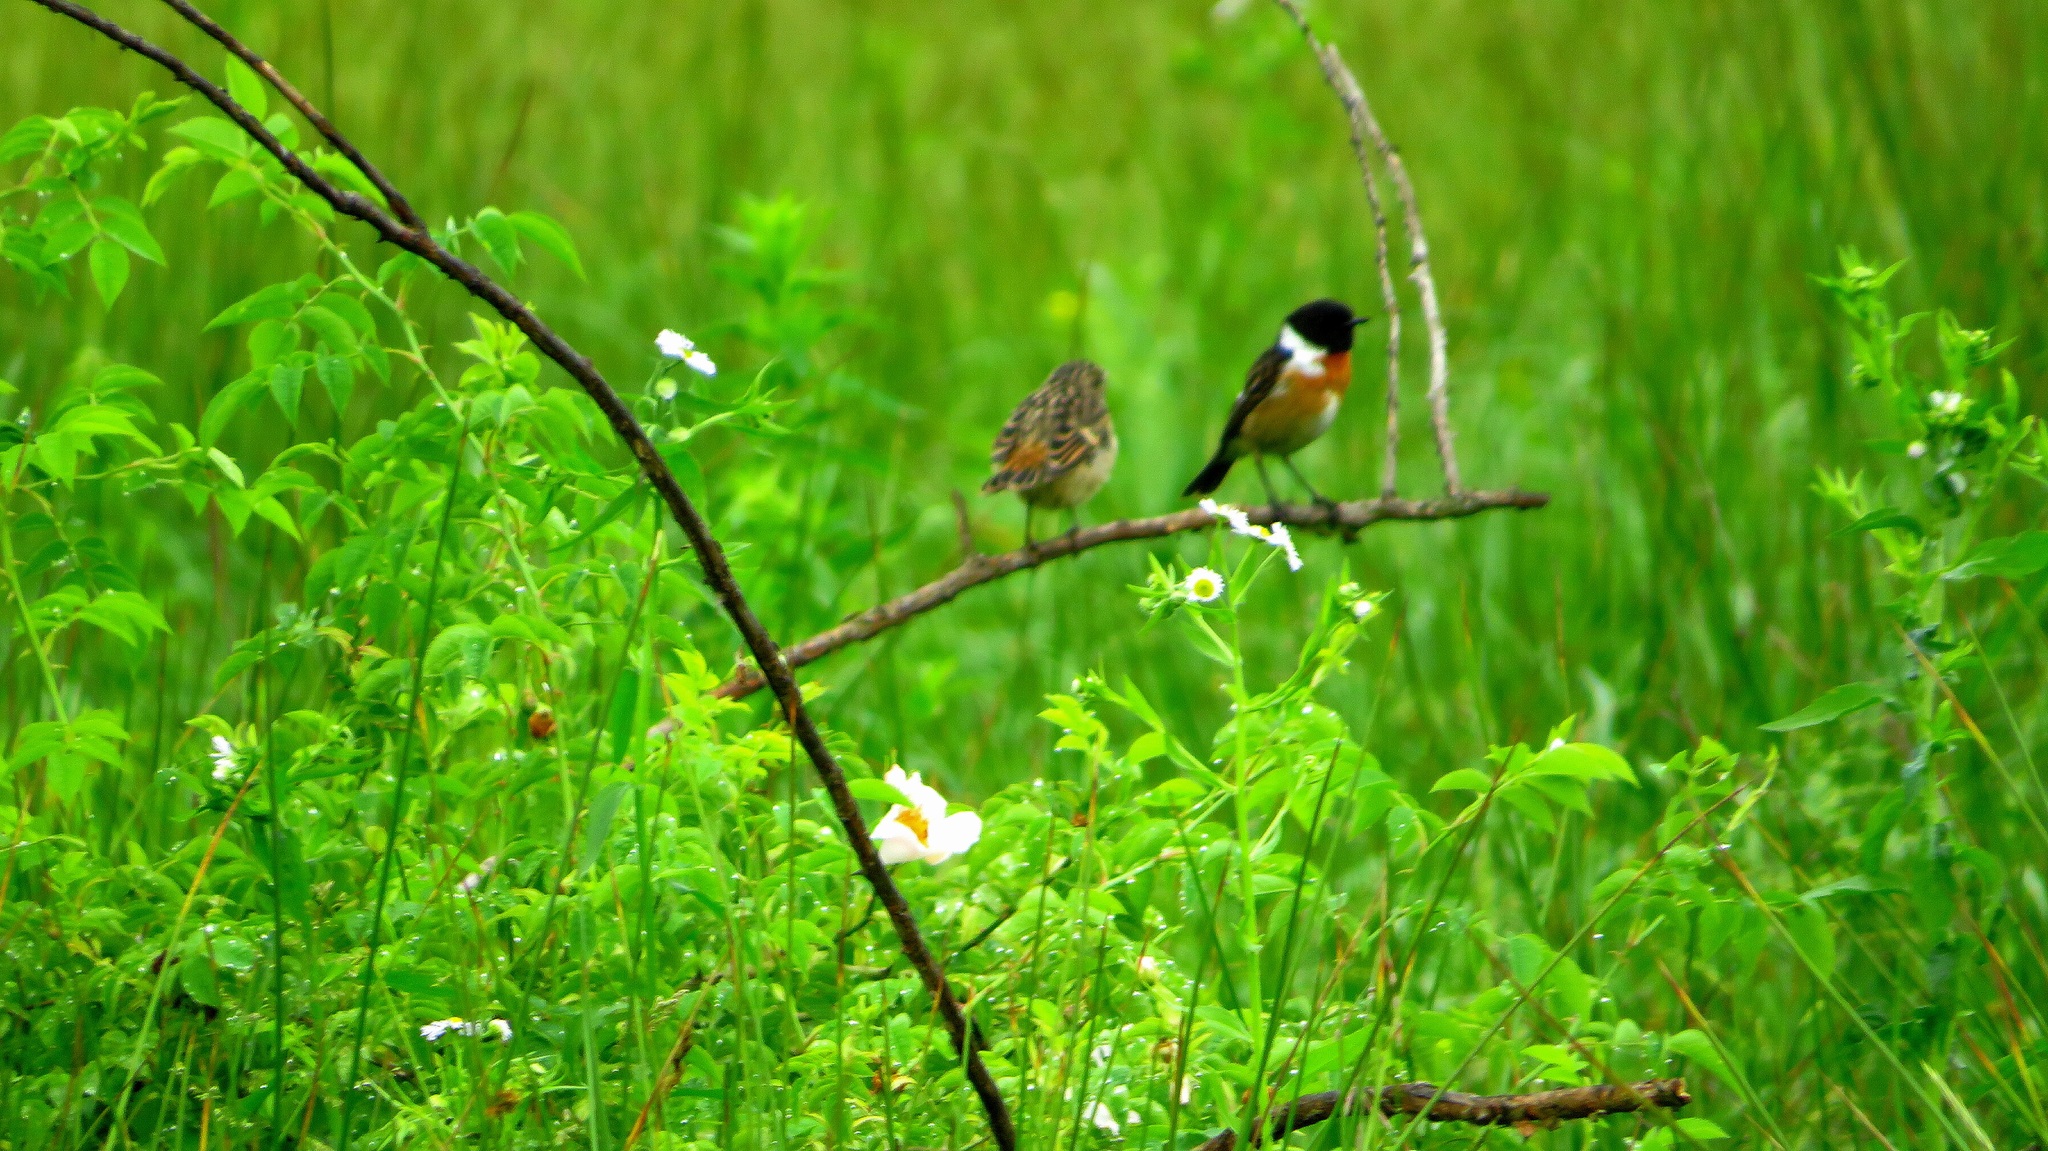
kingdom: Animalia
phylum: Chordata
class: Aves
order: Passeriformes
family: Muscicapidae
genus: Saxicola
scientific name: Saxicola rubicola
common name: European stonechat
